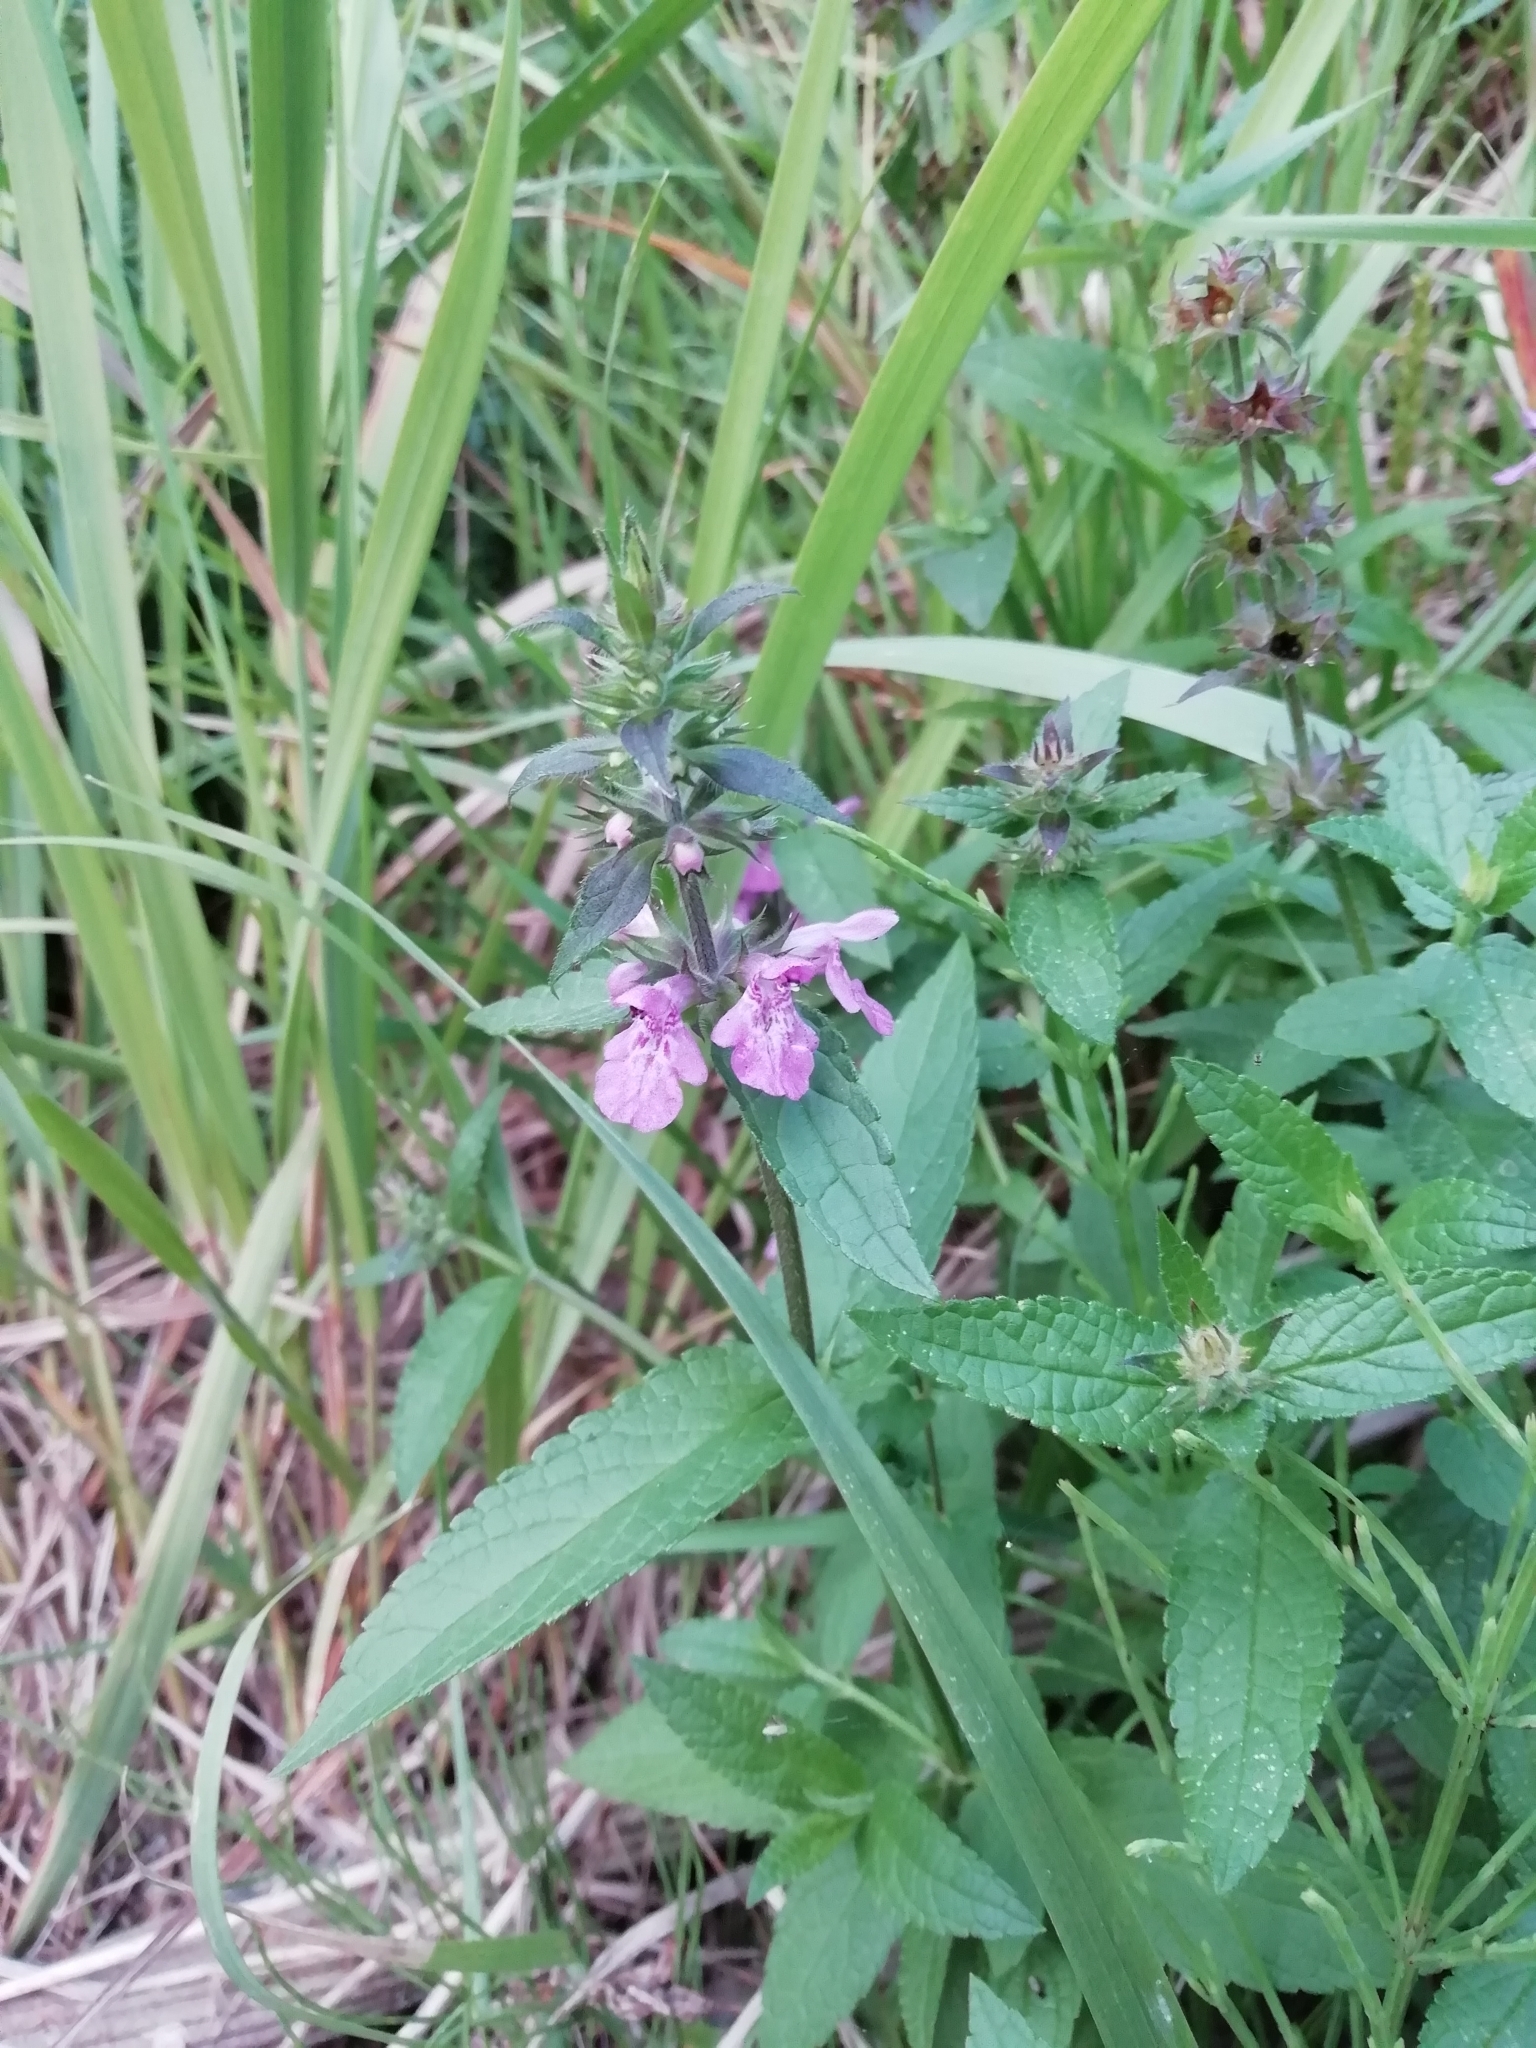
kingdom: Plantae
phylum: Tracheophyta
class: Magnoliopsida
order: Lamiales
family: Lamiaceae
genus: Stachys
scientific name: Stachys palustris
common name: Marsh woundwort
